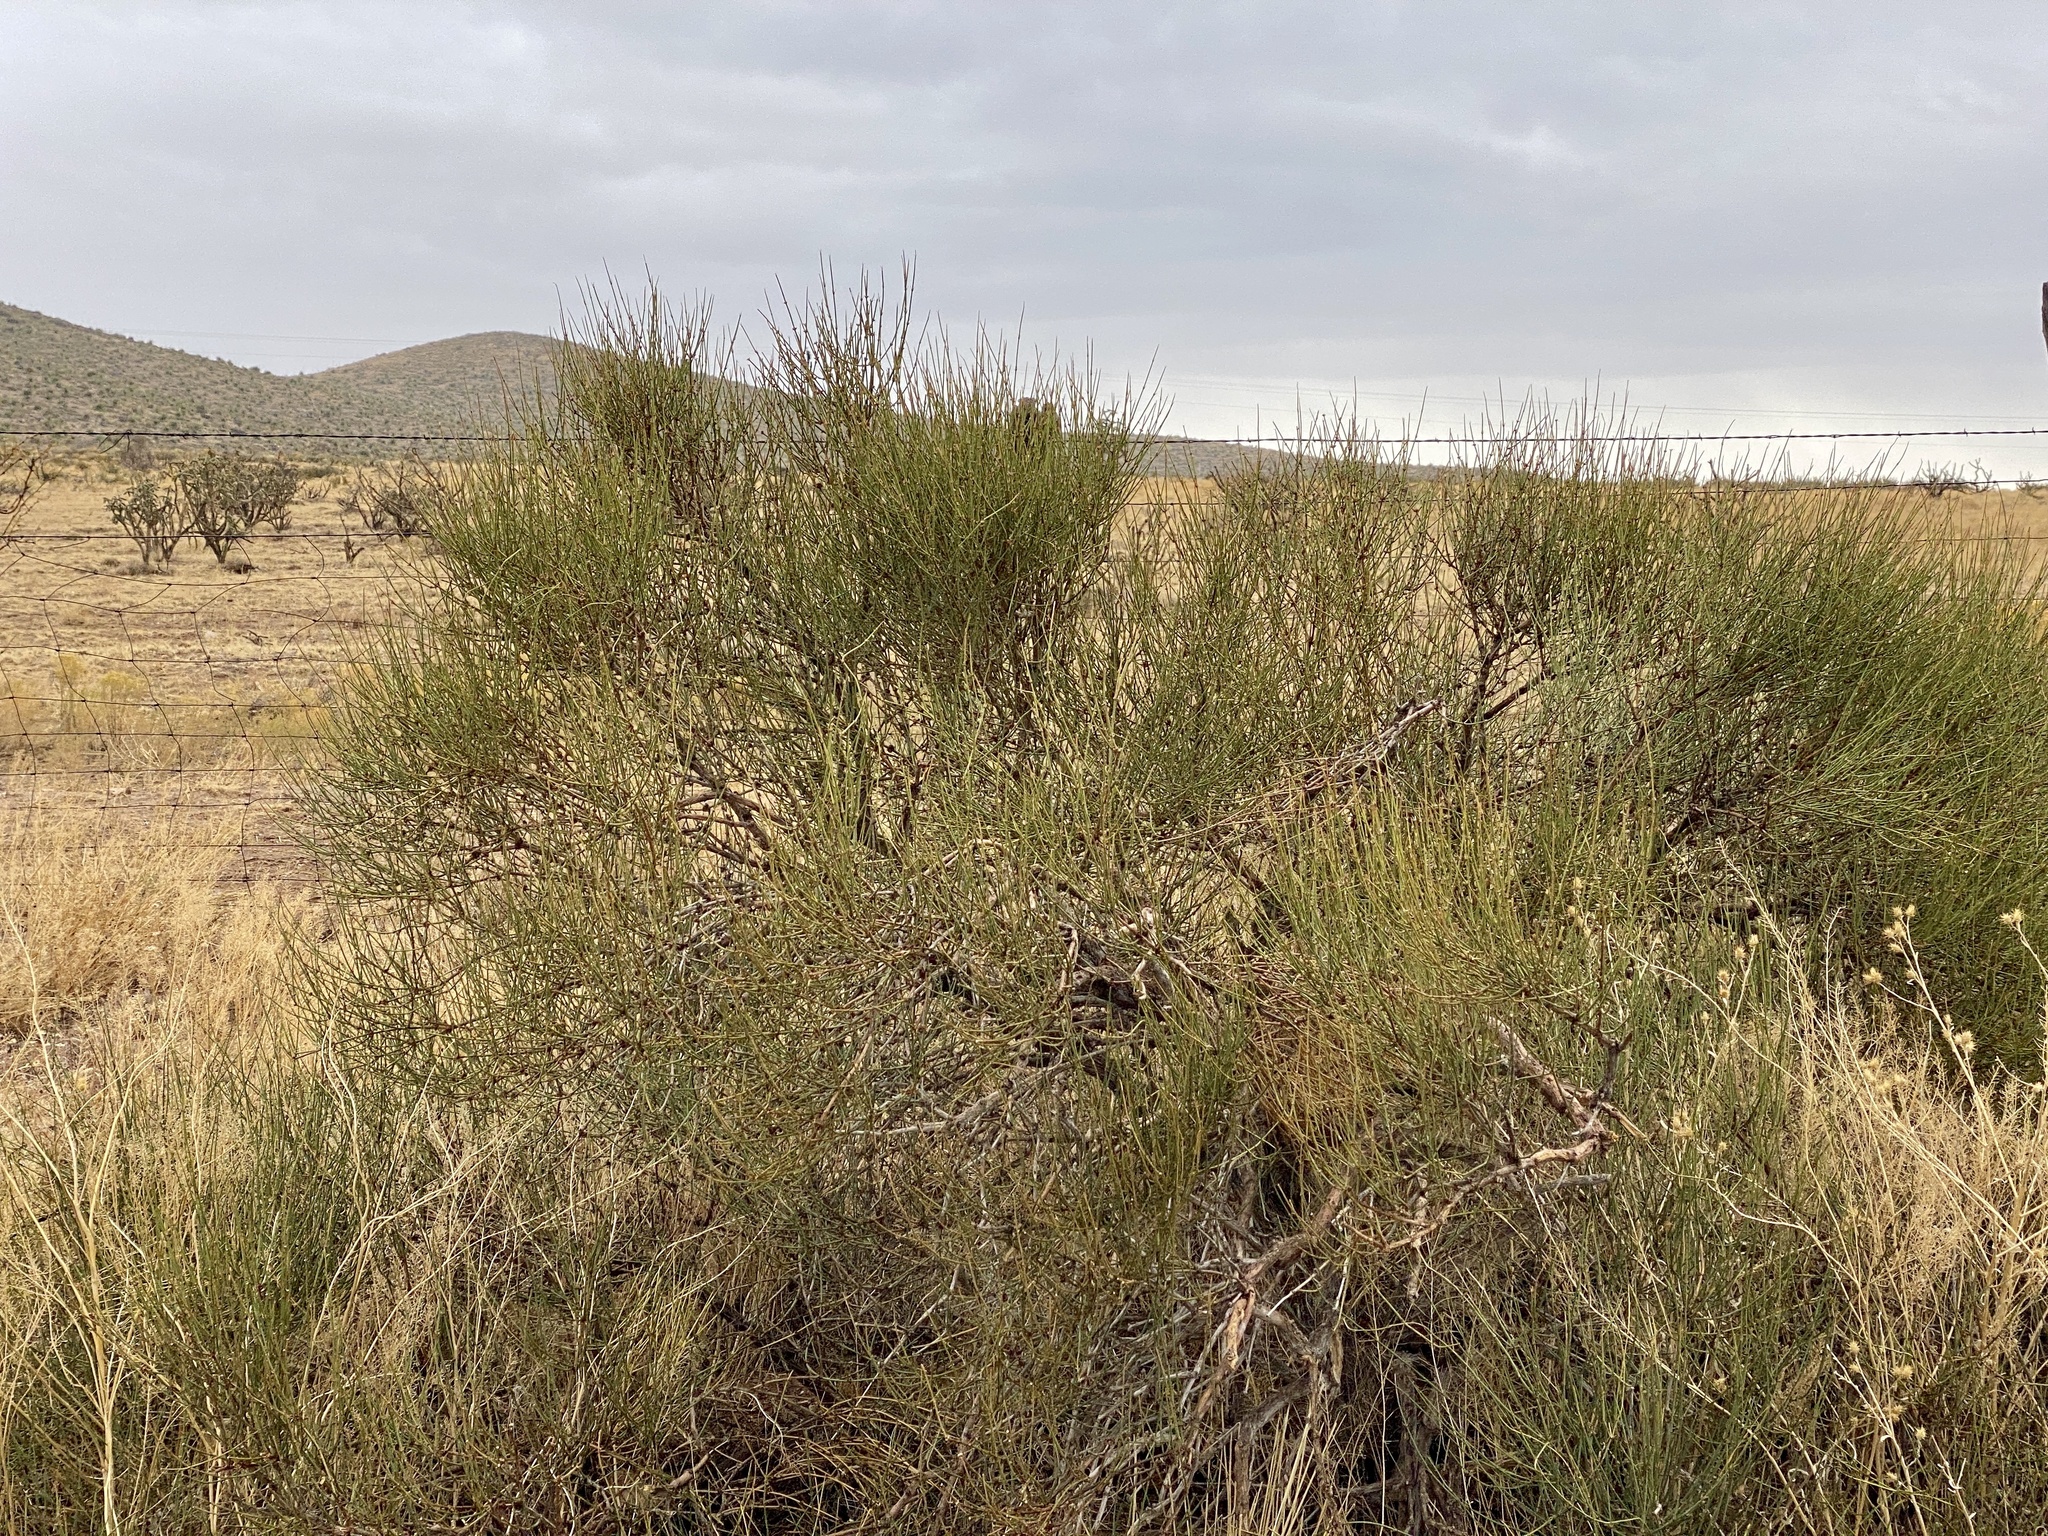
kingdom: Plantae
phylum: Tracheophyta
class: Gnetopsida
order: Ephedrales
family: Ephedraceae
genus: Ephedra
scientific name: Ephedra trifurca
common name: Mexican-tea
